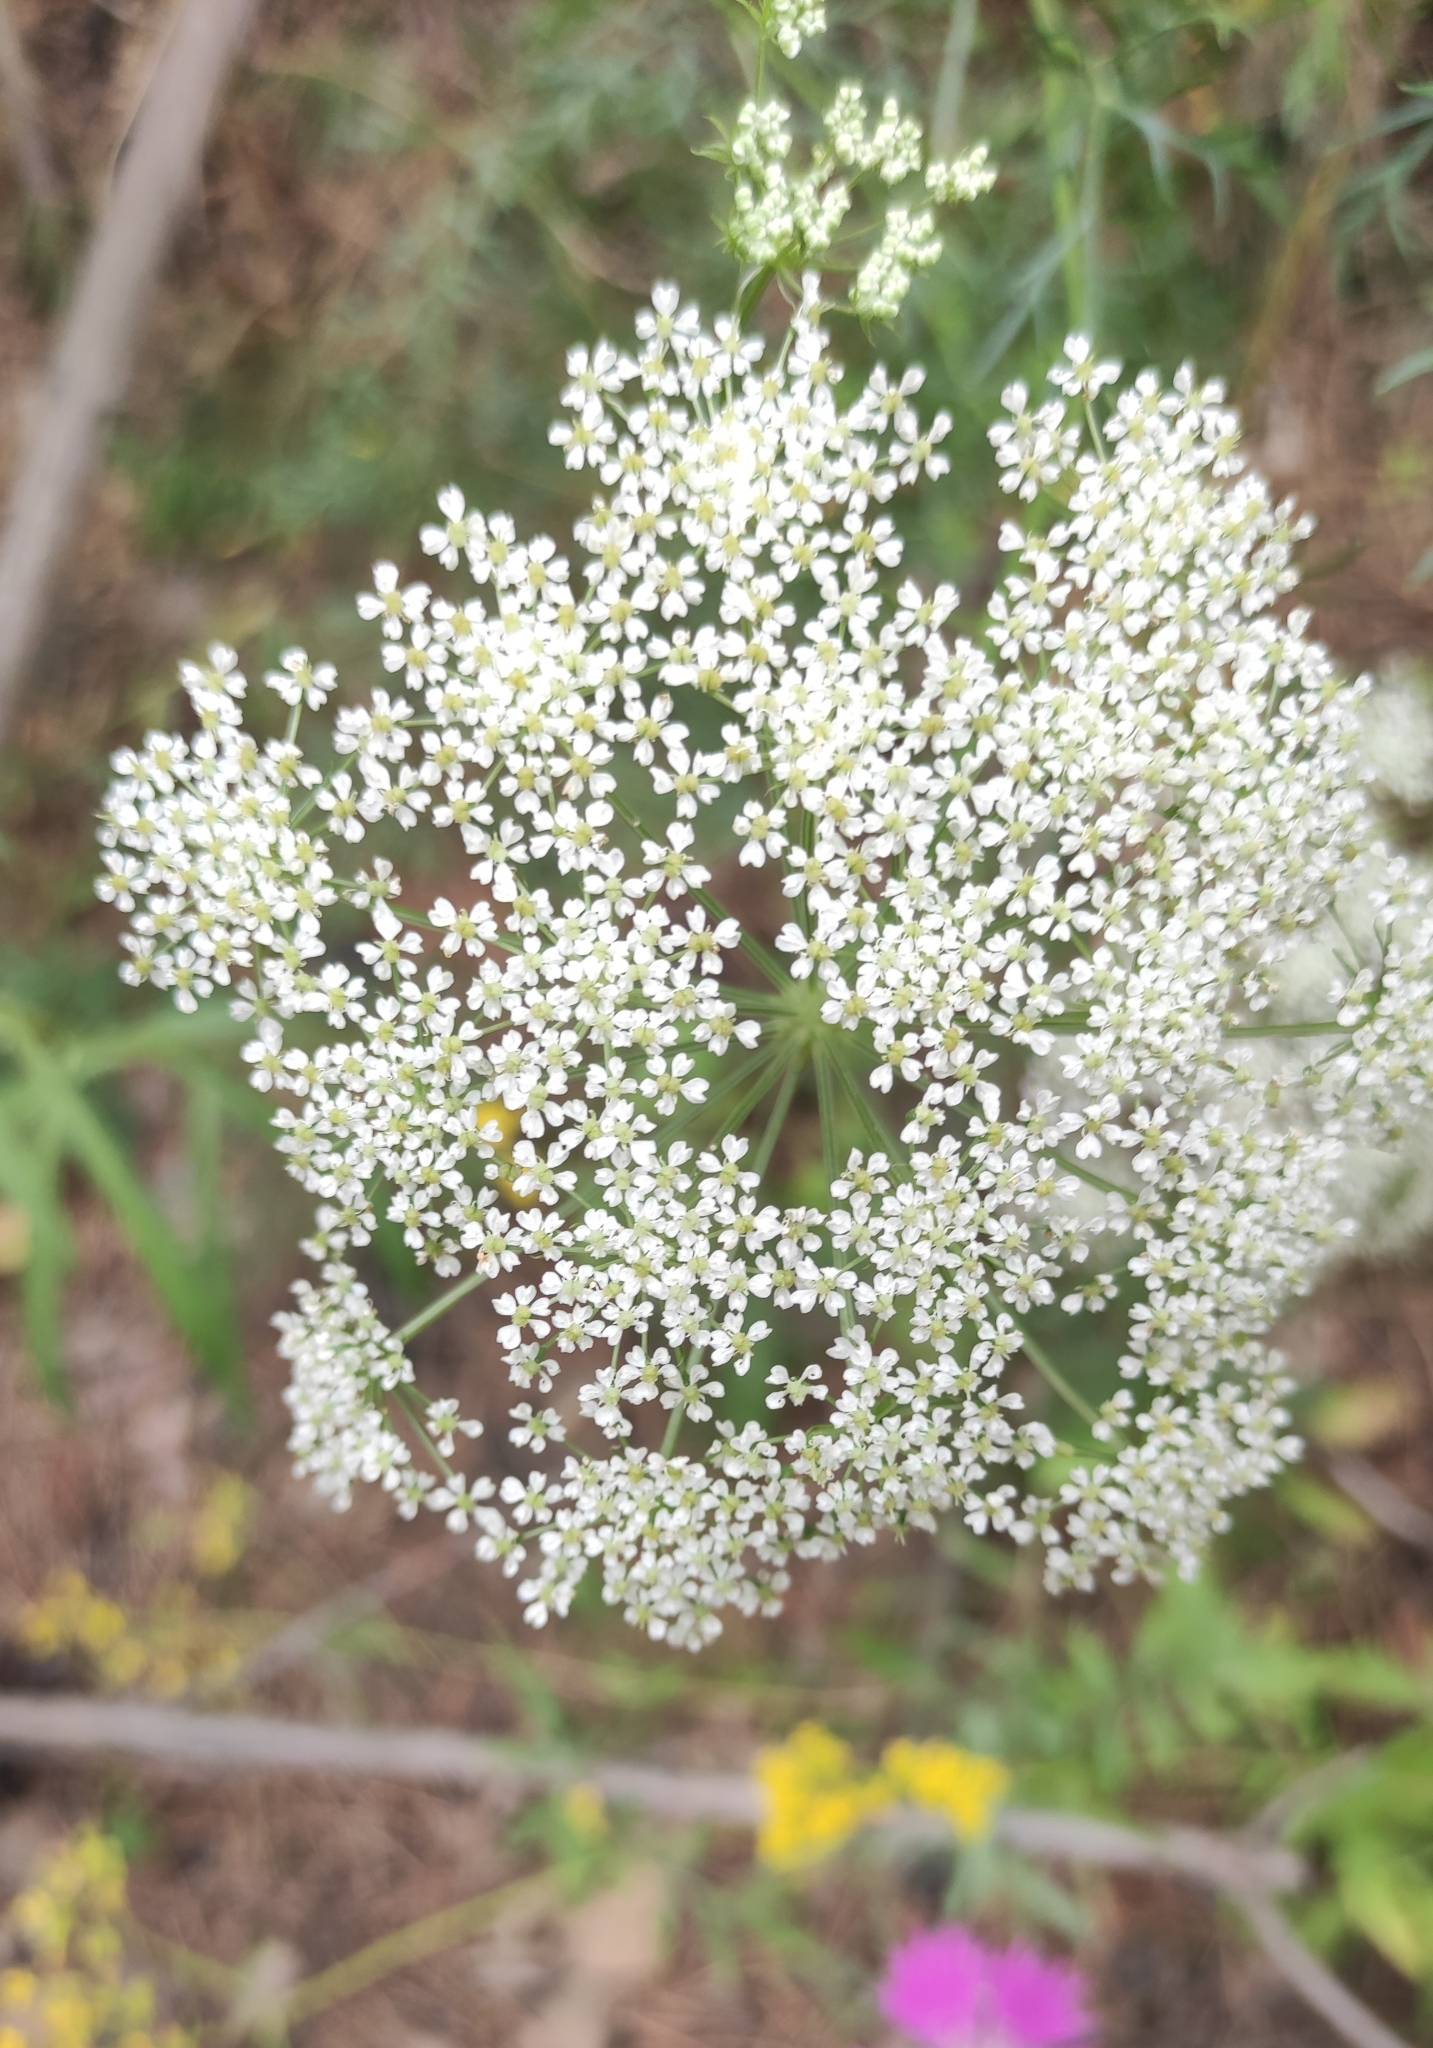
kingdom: Plantae
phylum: Tracheophyta
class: Magnoliopsida
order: Apiales
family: Apiaceae
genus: Kitagawia
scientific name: Kitagawia baicalensis
